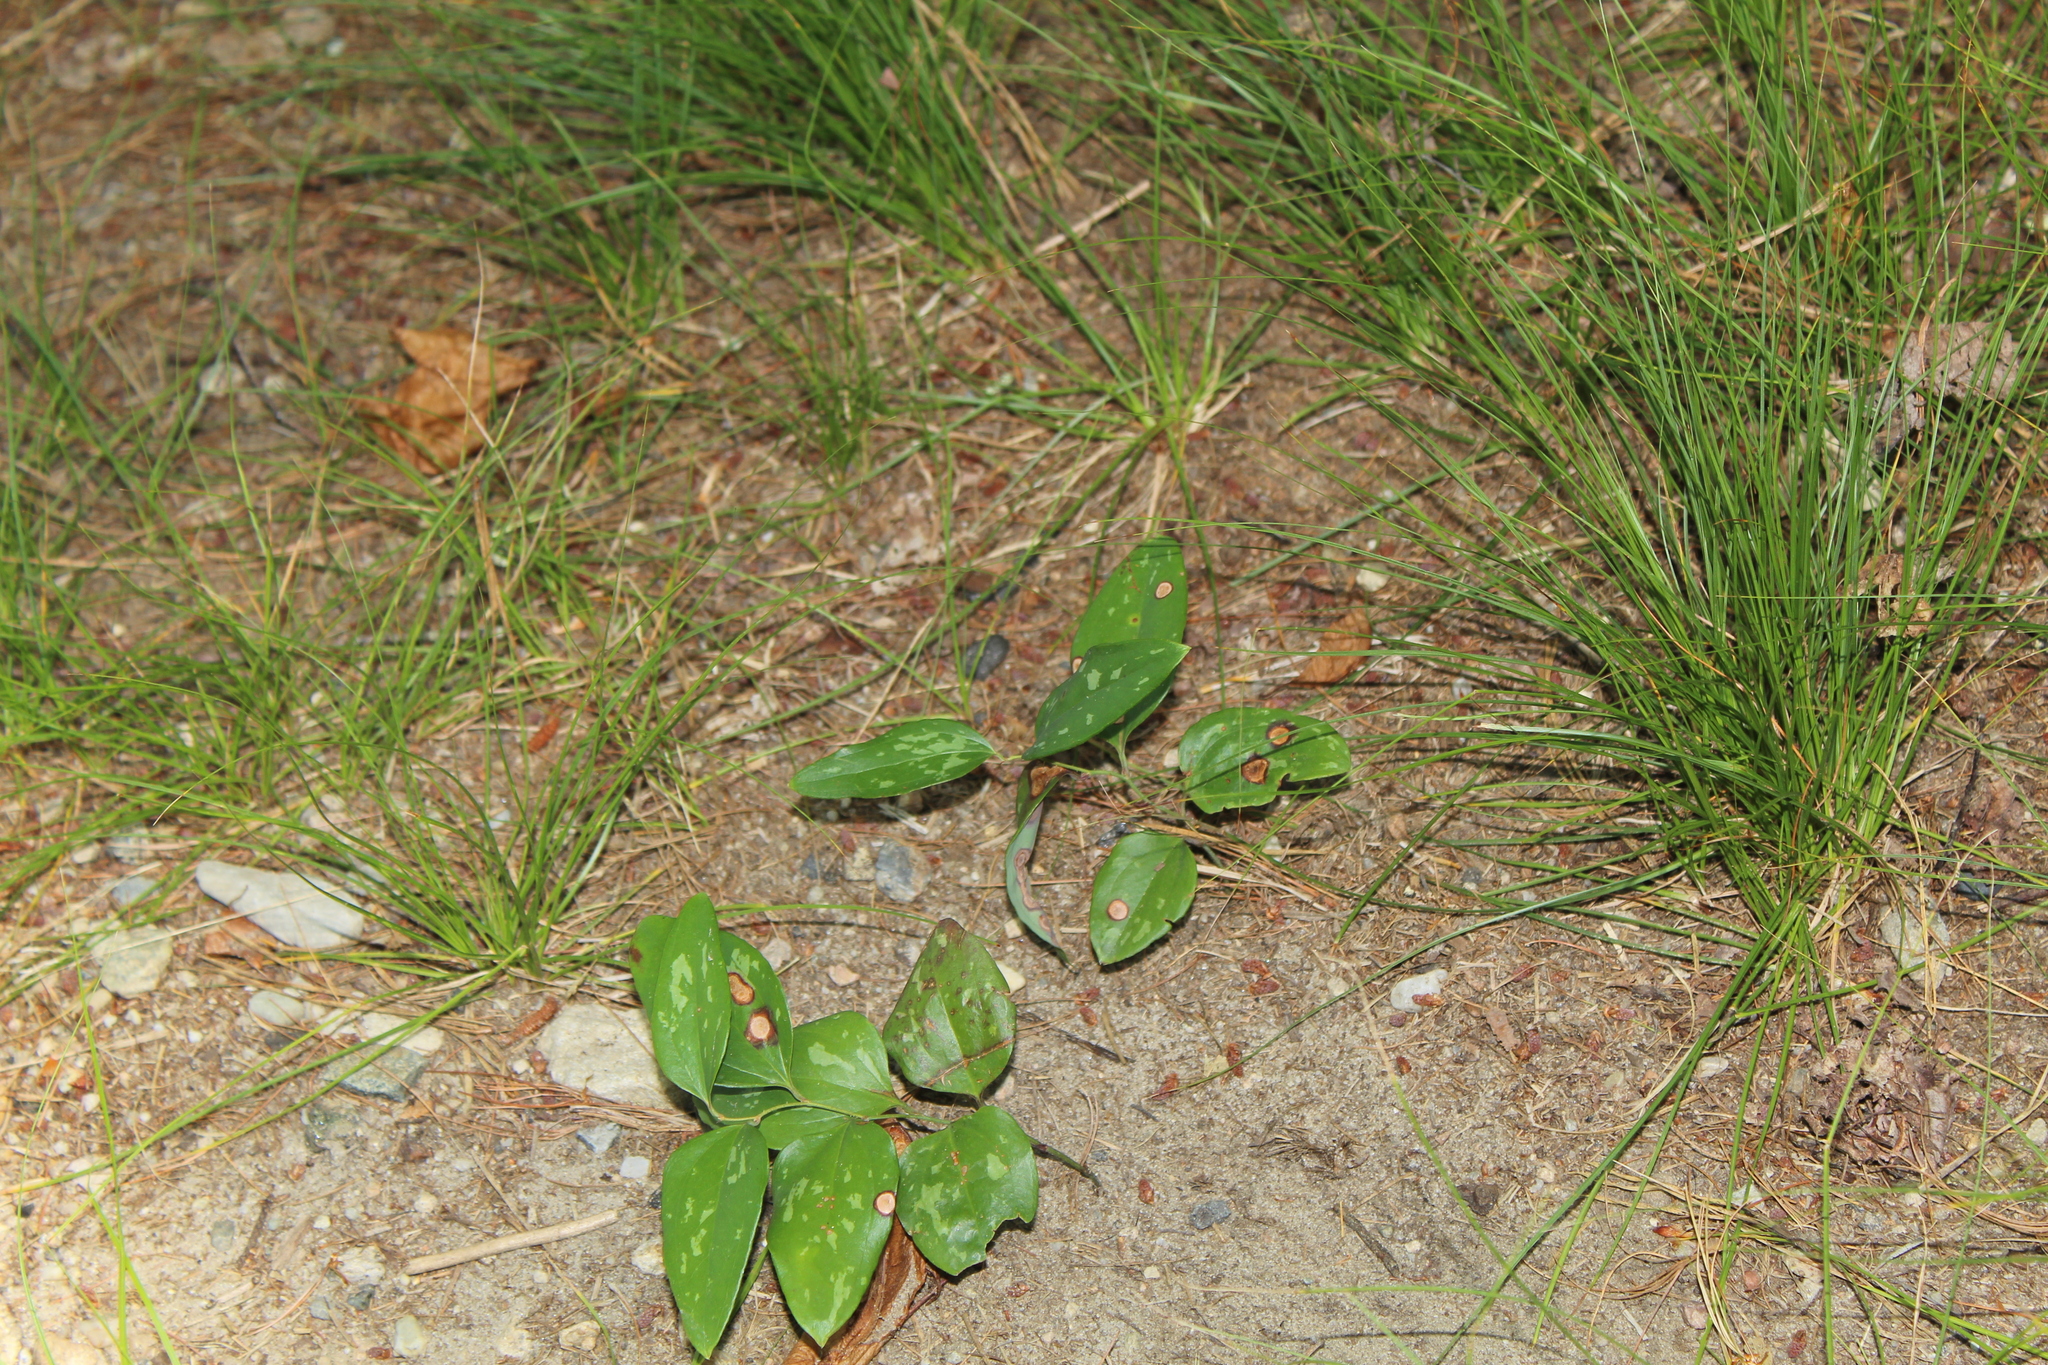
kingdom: Plantae
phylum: Tracheophyta
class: Liliopsida
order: Liliales
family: Smilacaceae
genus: Smilax
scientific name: Smilax glauca
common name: Cat greenbrier
